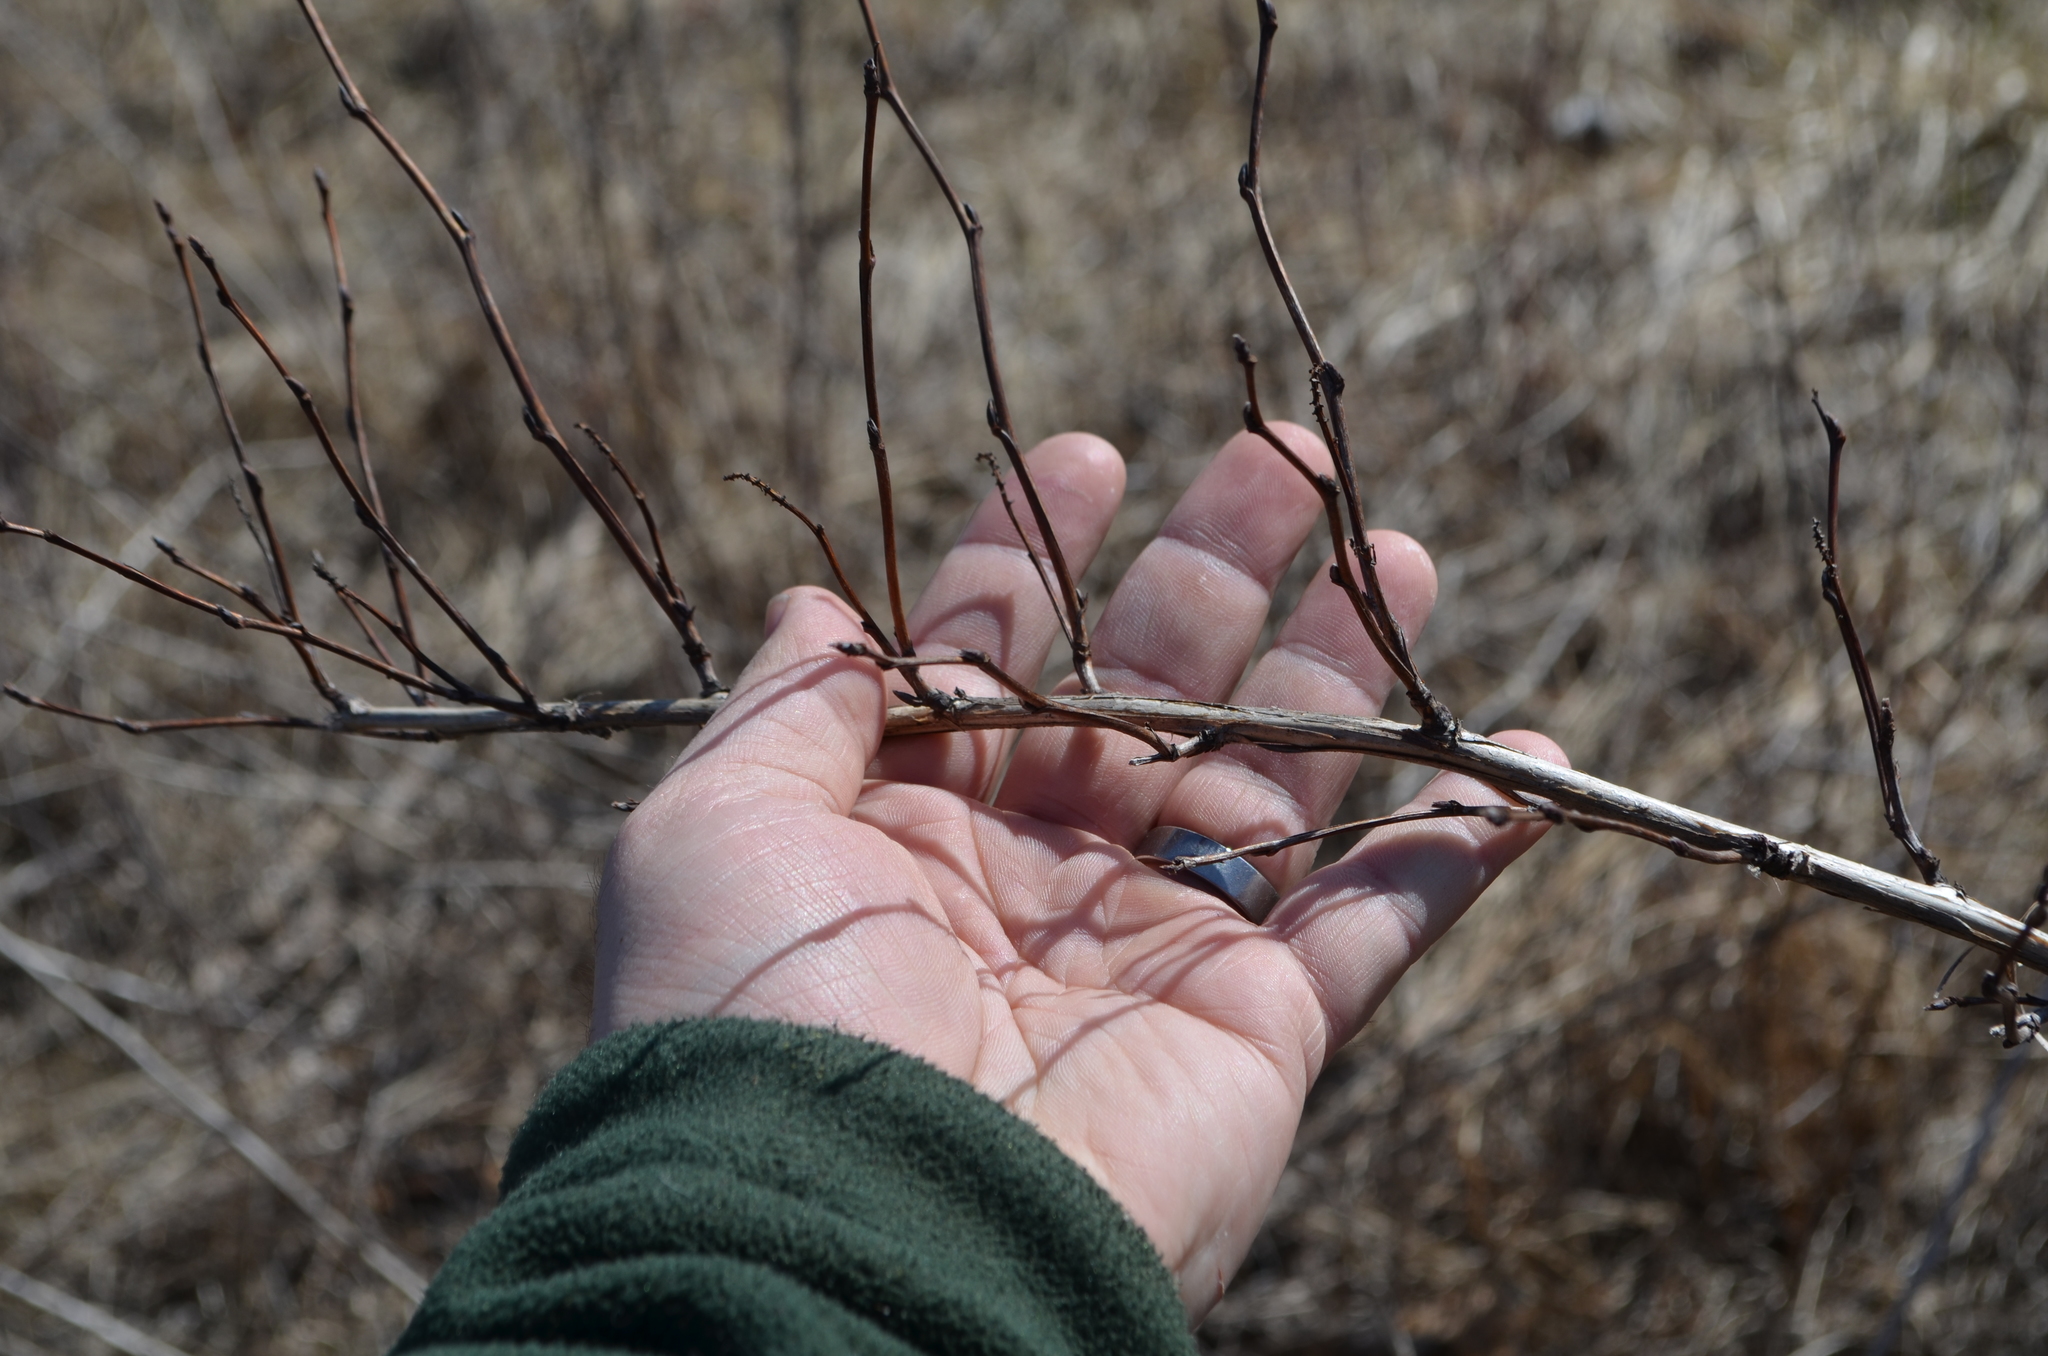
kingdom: Plantae
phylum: Tracheophyta
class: Magnoliopsida
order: Rosales
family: Rosaceae
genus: Physocarpus
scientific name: Physocarpus opulifolius
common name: Ninebark
